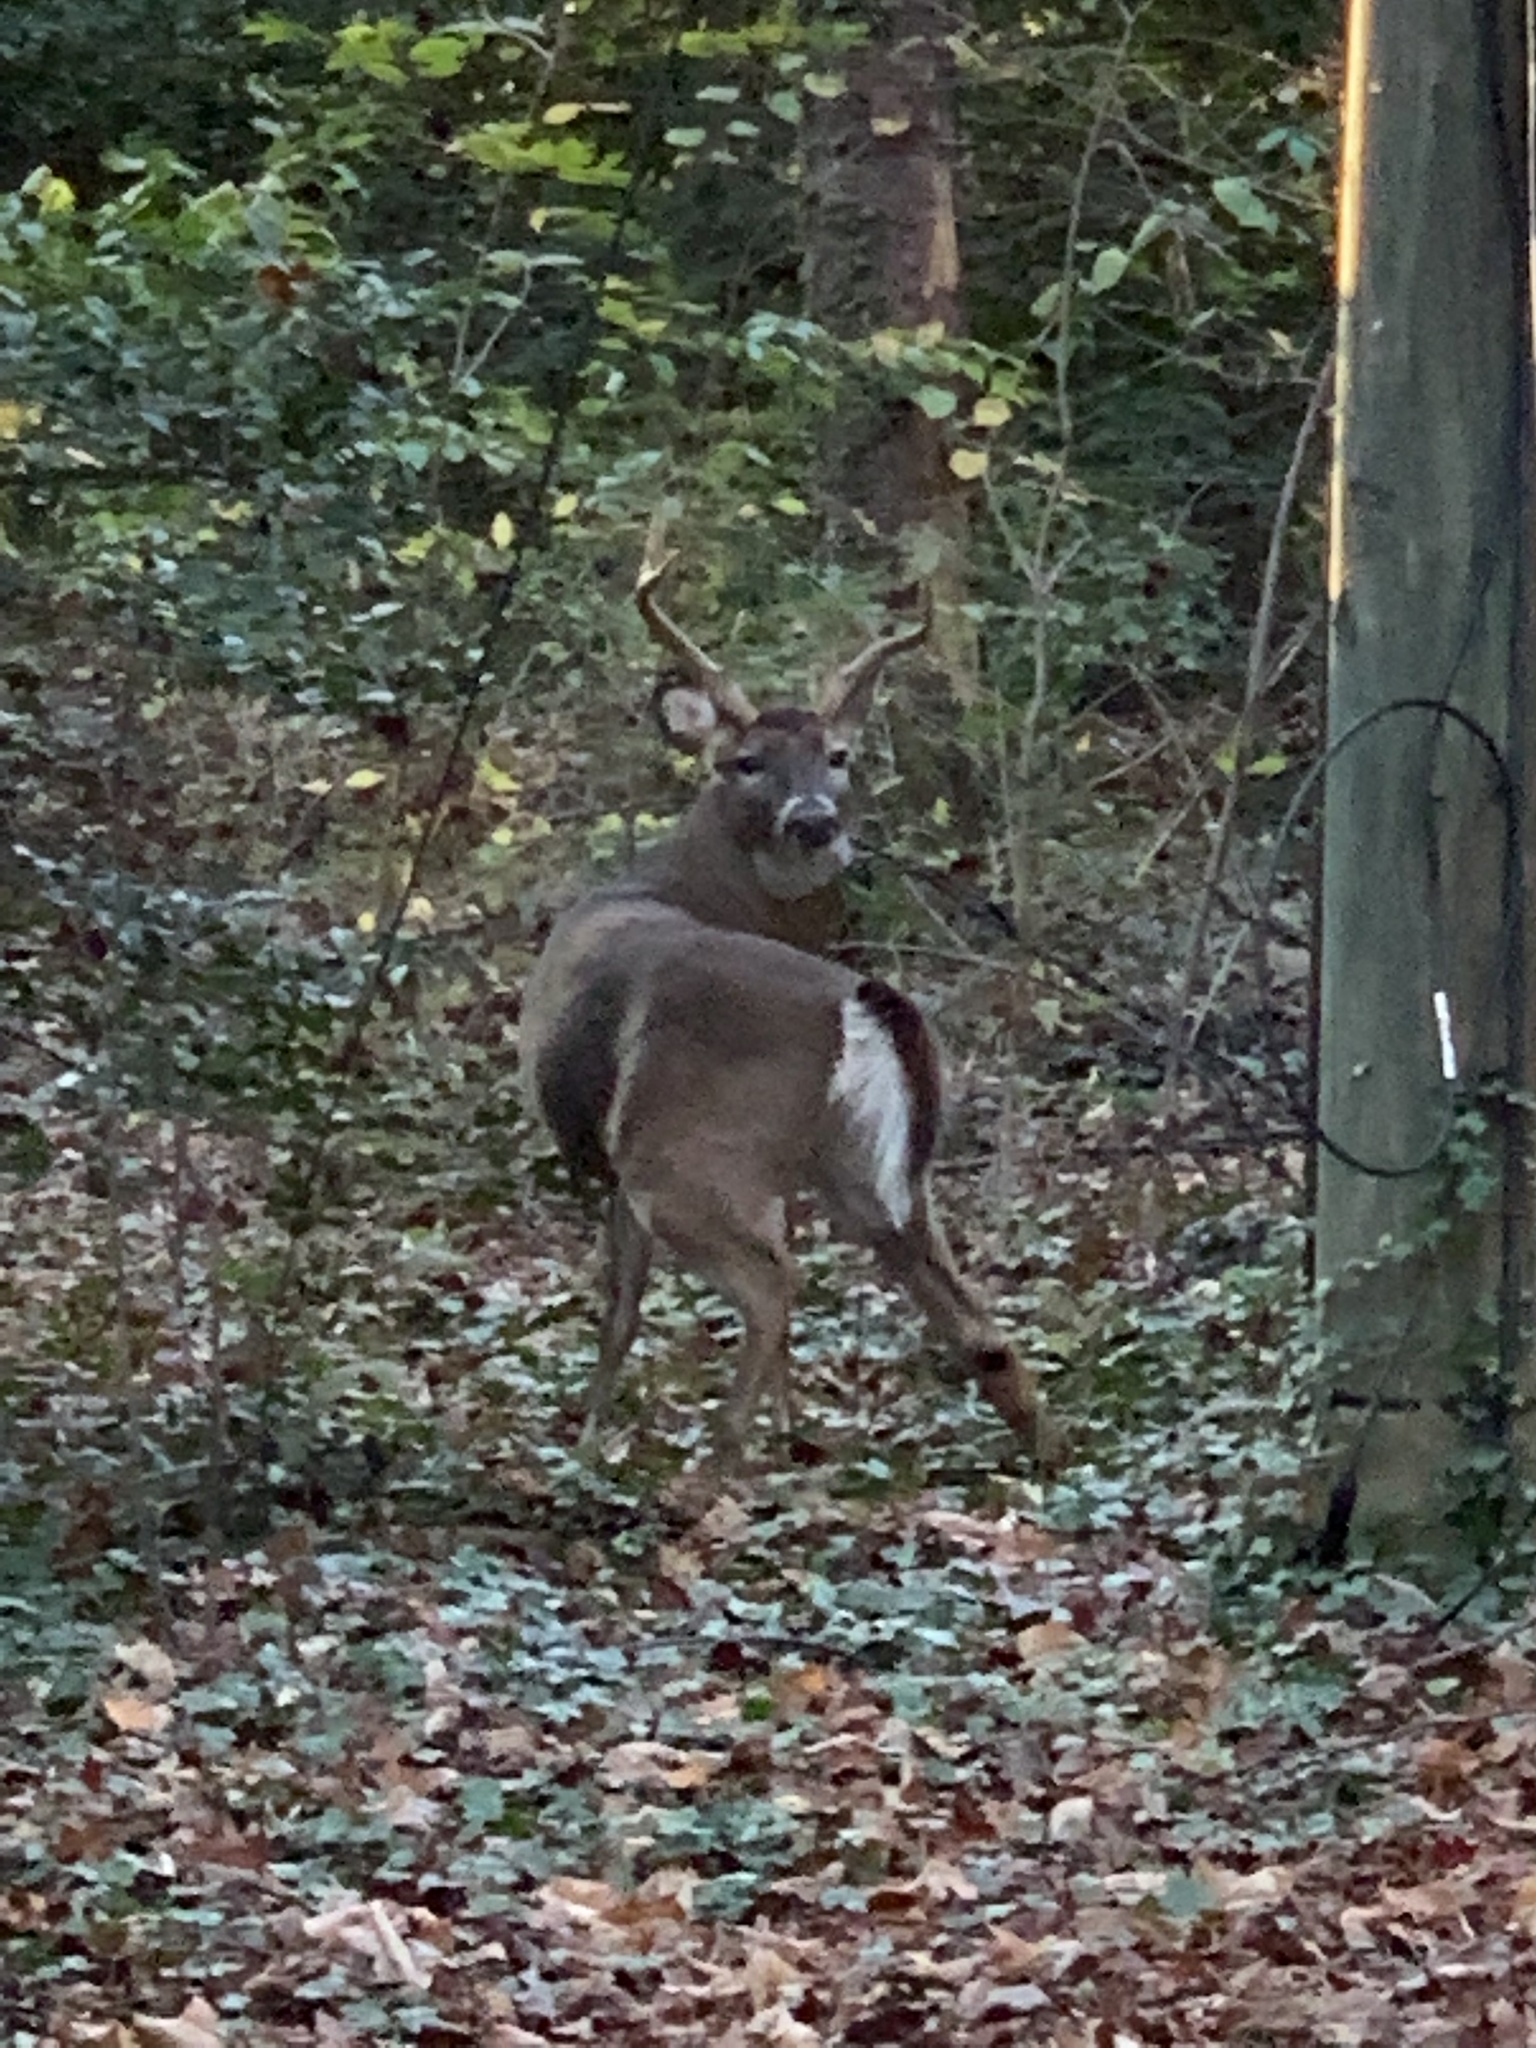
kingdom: Animalia
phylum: Chordata
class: Mammalia
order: Artiodactyla
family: Cervidae
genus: Odocoileus
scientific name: Odocoileus virginianus
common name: White-tailed deer
